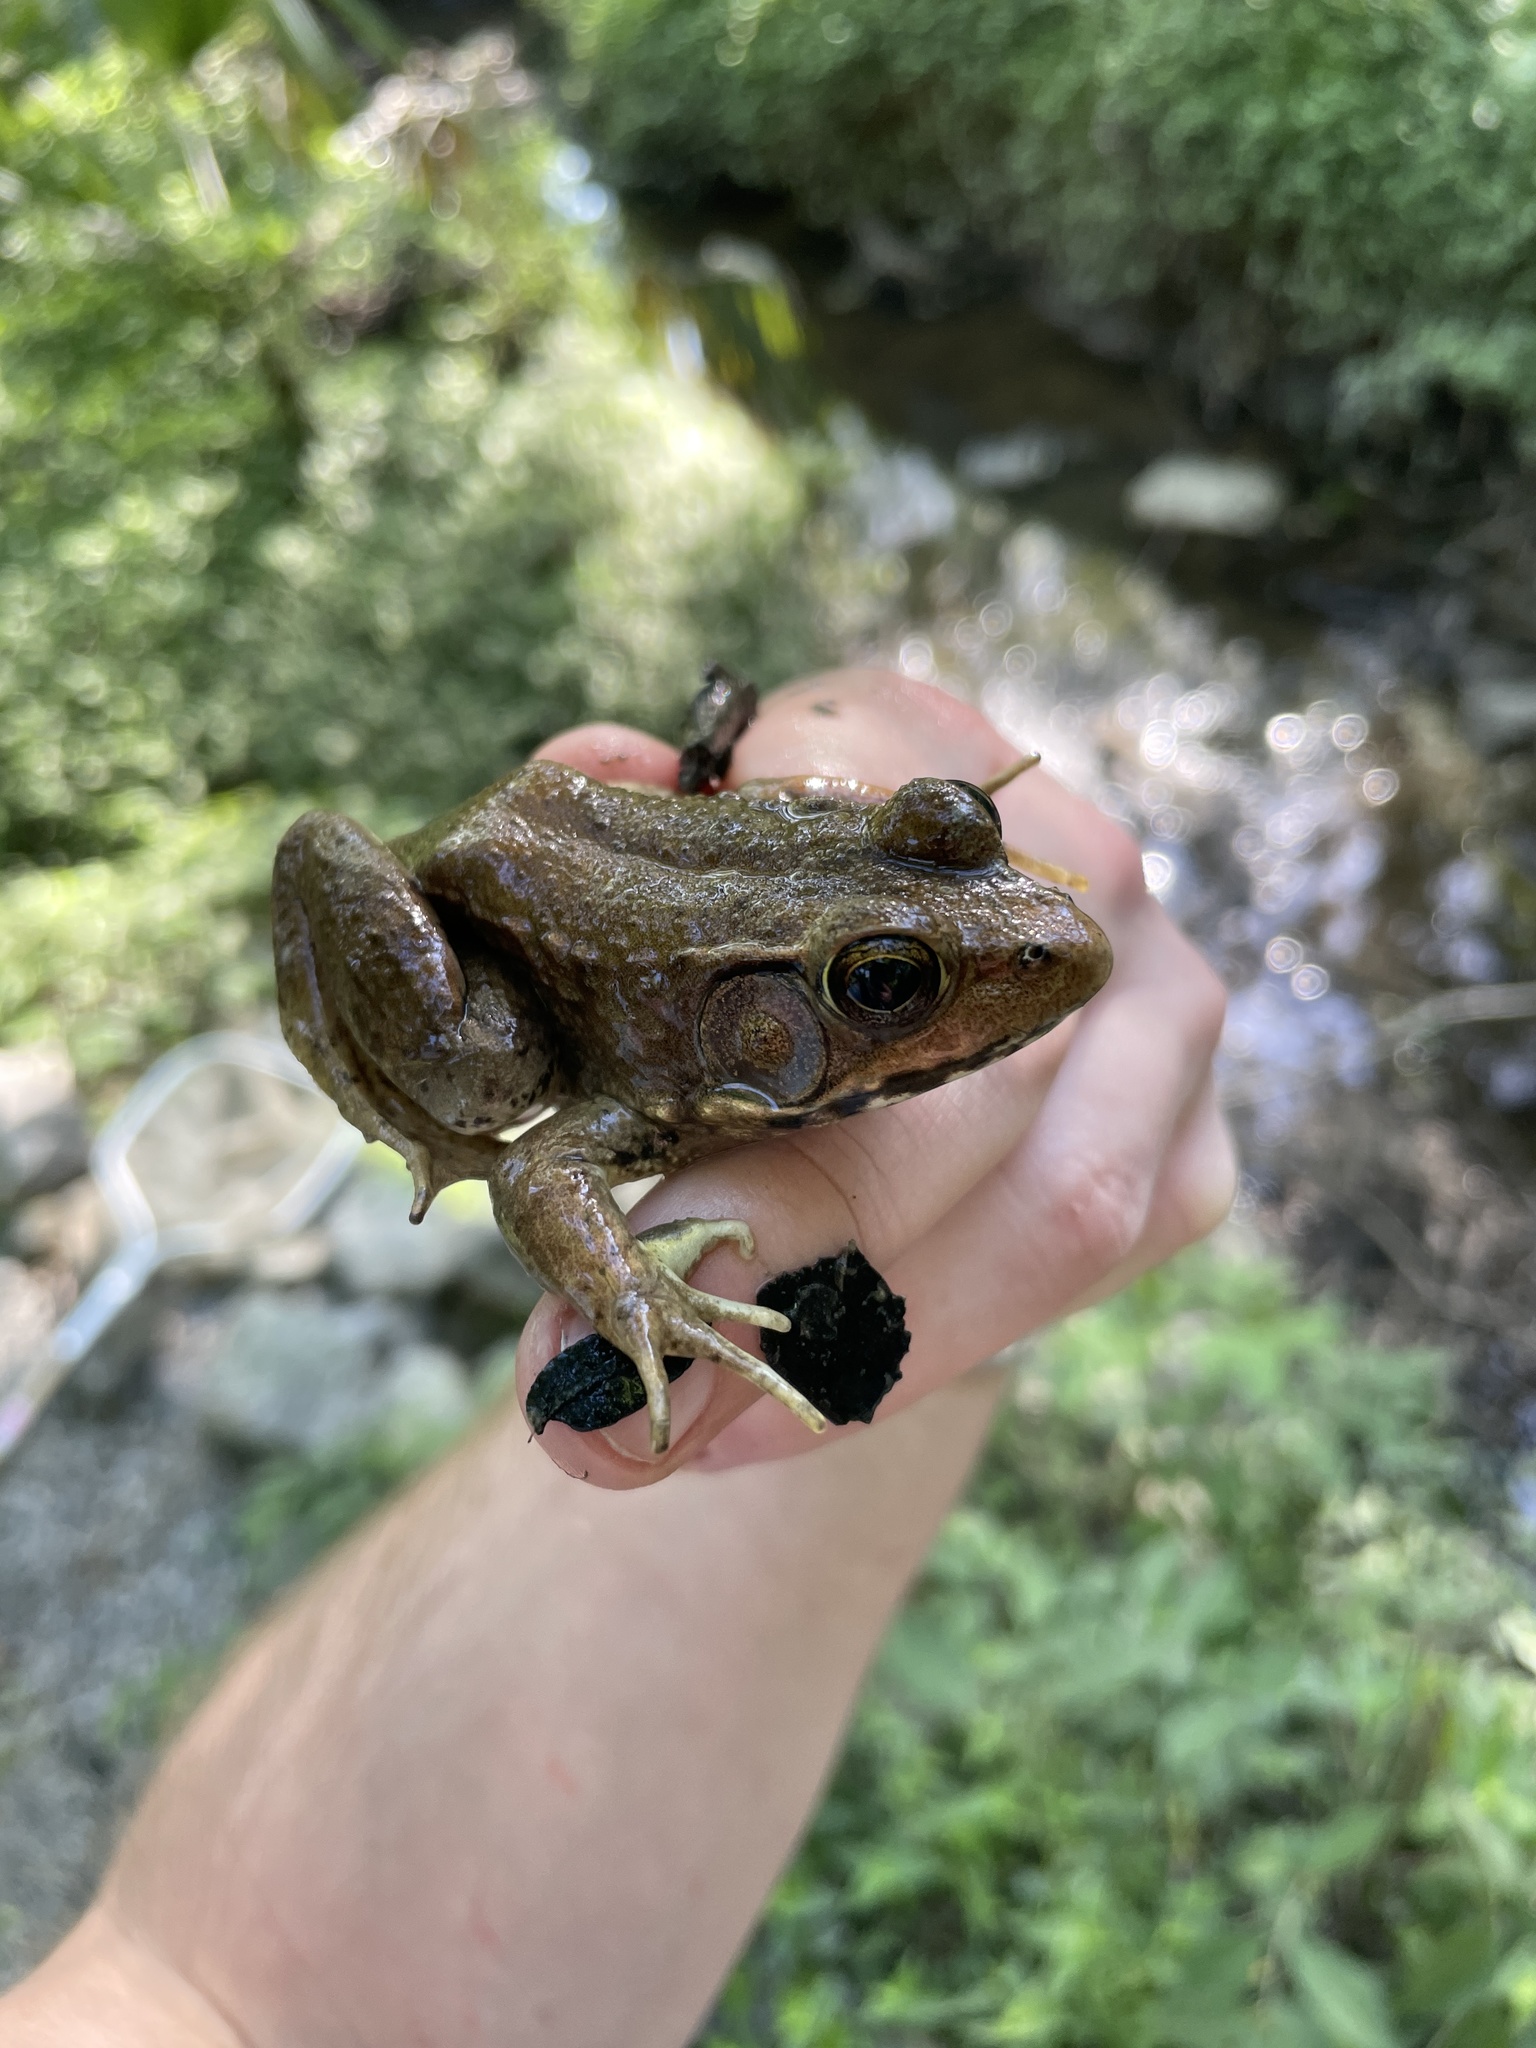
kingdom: Animalia
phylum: Chordata
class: Amphibia
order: Anura
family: Ranidae
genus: Lithobates
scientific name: Lithobates clamitans
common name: Green frog
